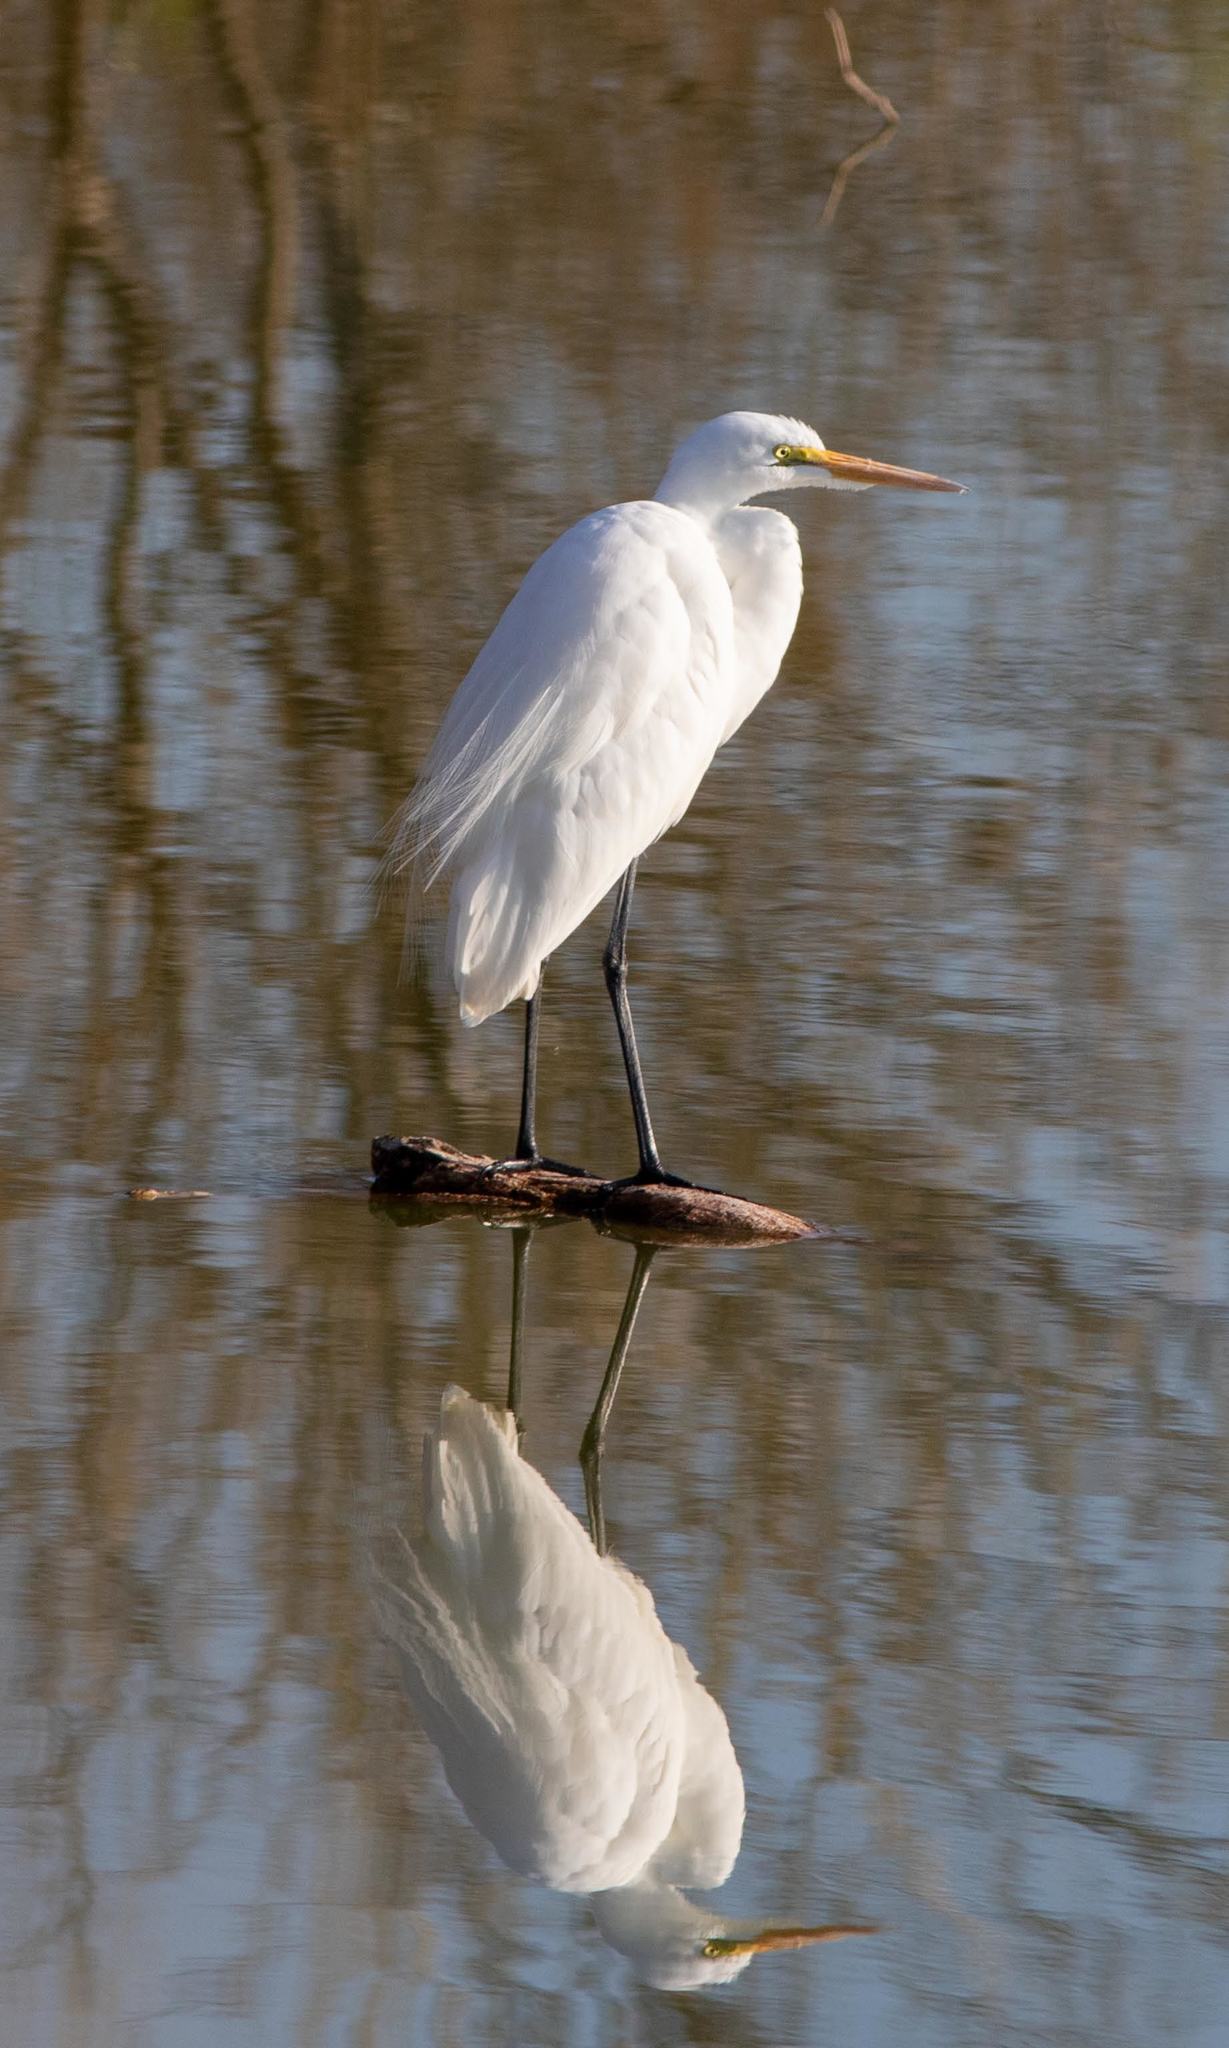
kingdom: Animalia
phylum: Chordata
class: Aves
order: Pelecaniformes
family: Ardeidae
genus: Ardea
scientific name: Ardea alba
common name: Great egret
